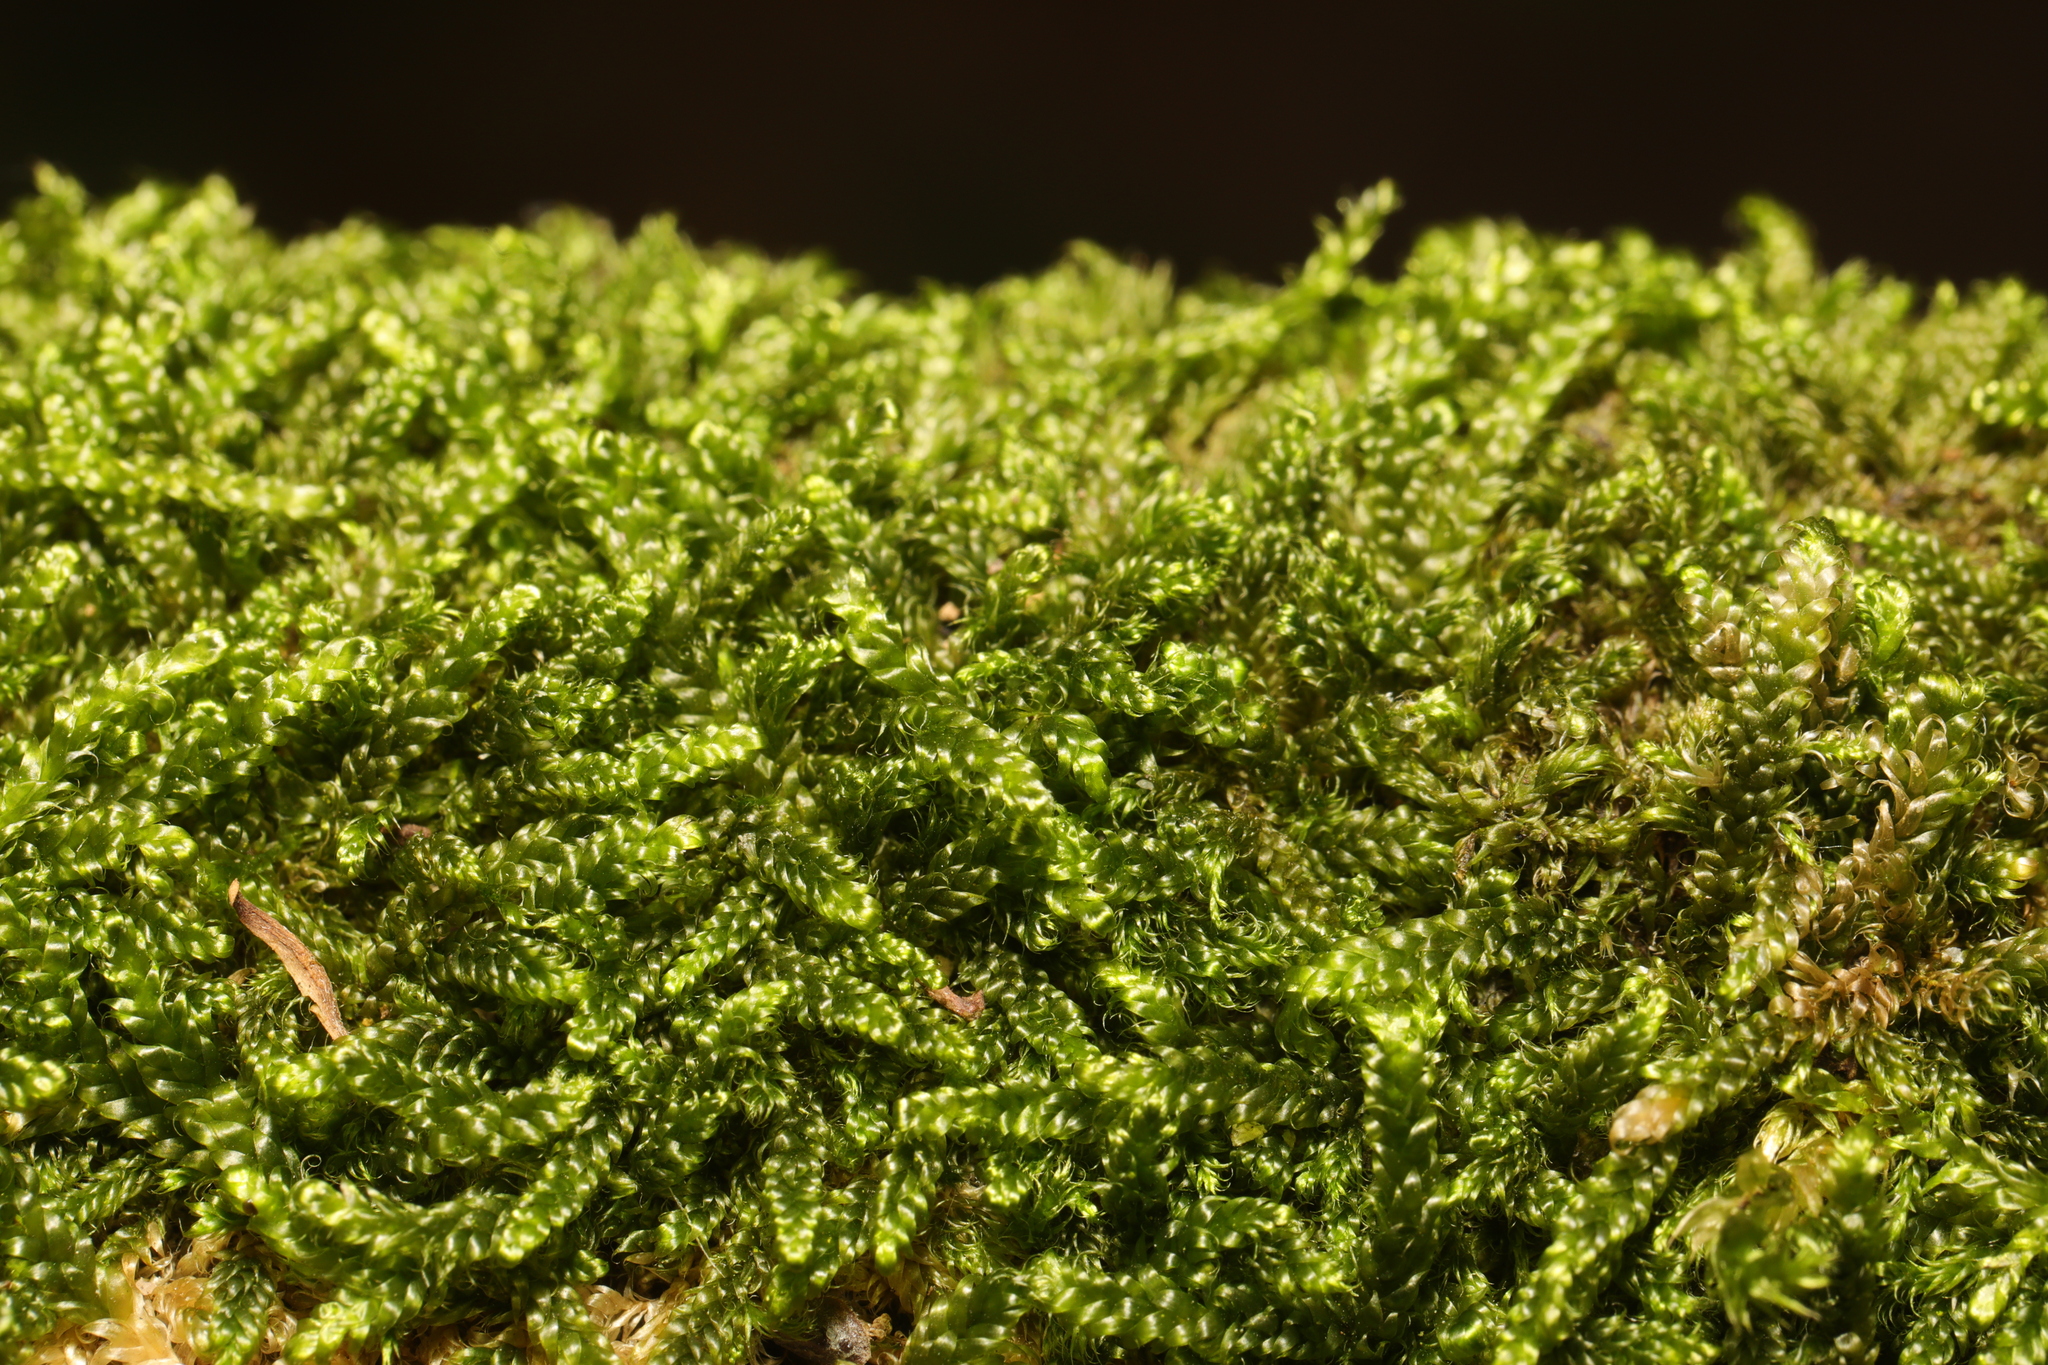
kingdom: Plantae
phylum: Bryophyta
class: Bryopsida
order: Hypnales
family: Hypnaceae
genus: Hypnum
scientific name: Hypnum cupressiforme
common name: Cypress-leaved plait-moss
